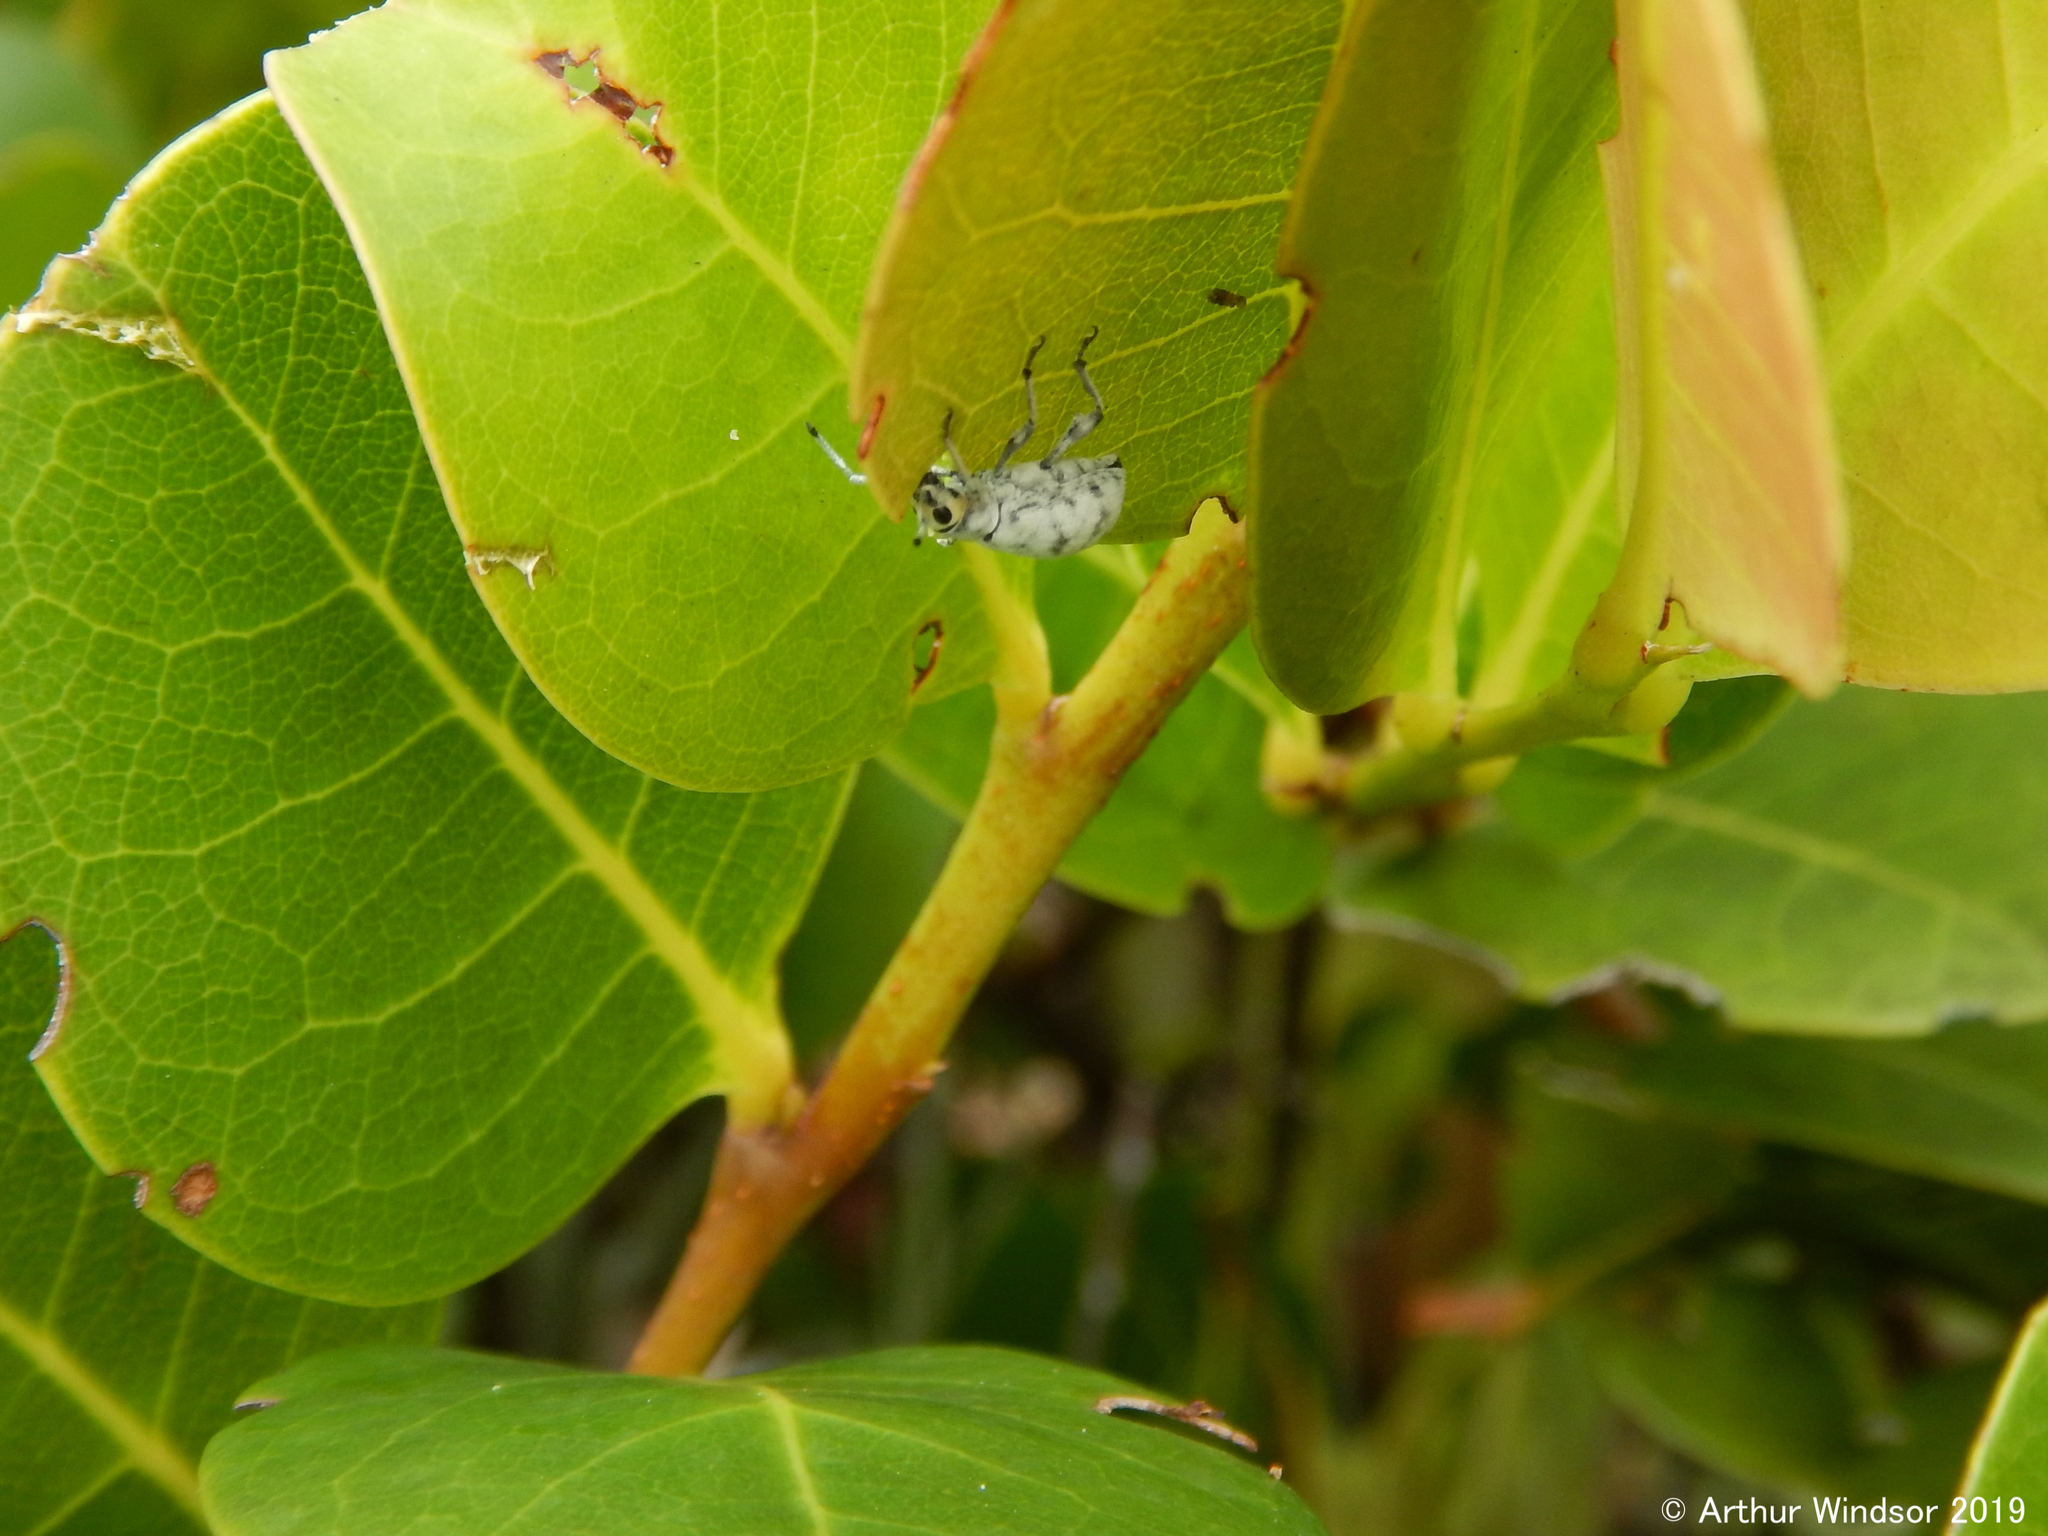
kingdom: Animalia
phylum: Arthropoda
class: Insecta
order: Coleoptera
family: Curculionidae
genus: Myllocerus
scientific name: Myllocerus undecimpustulatus
